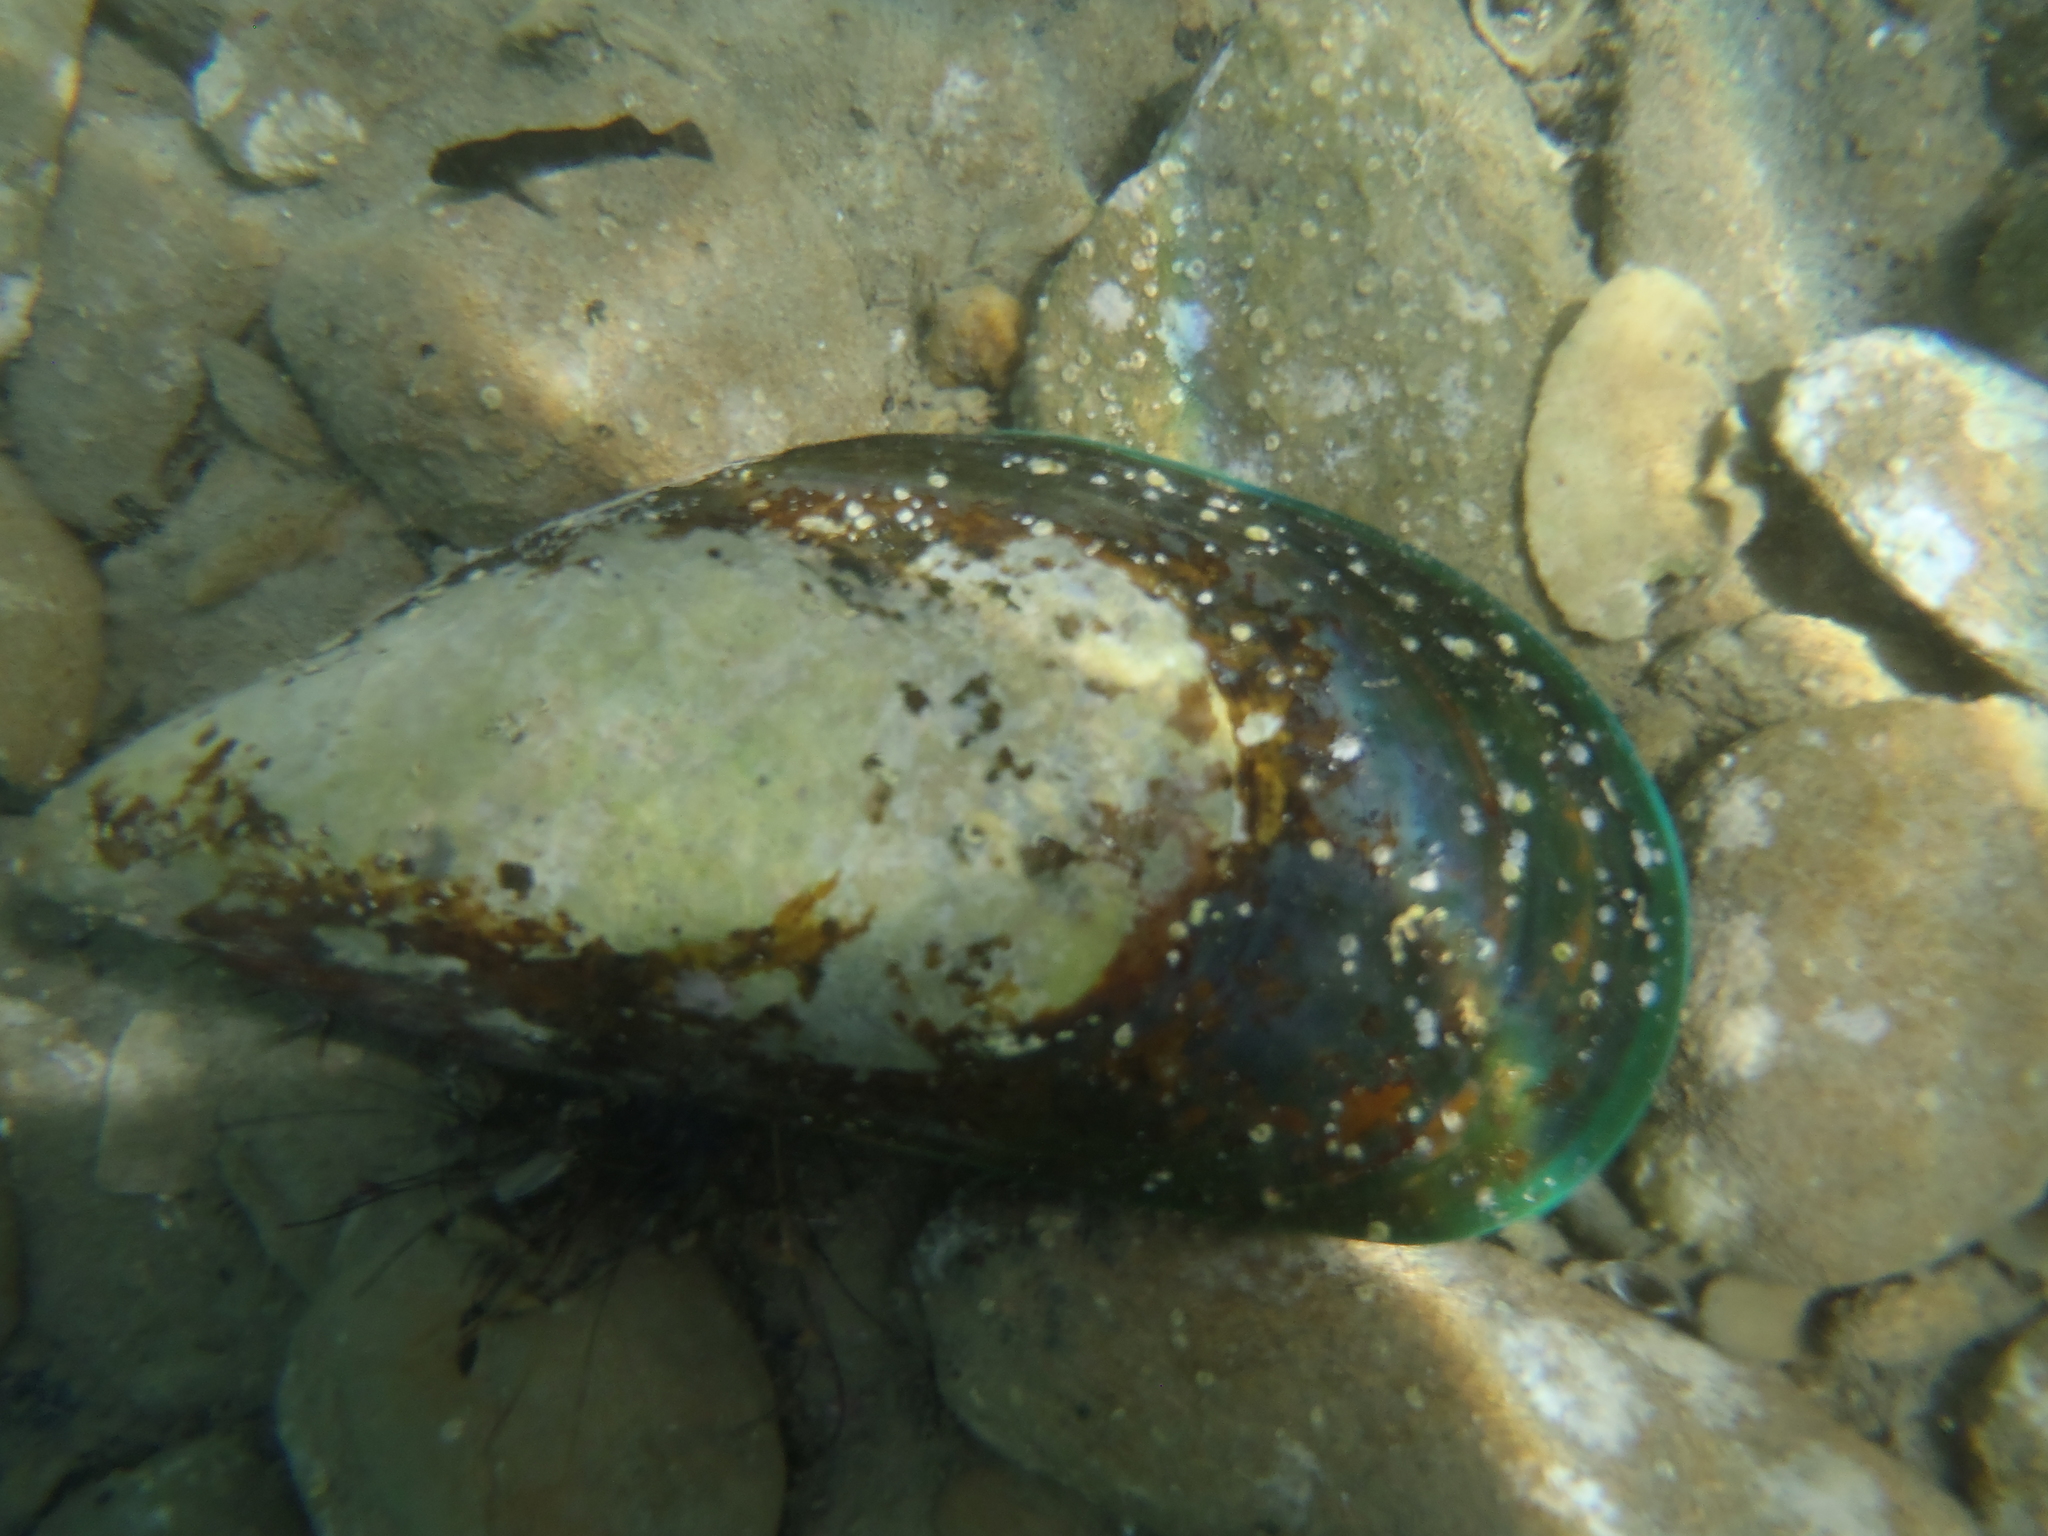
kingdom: Animalia
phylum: Mollusca
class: Bivalvia
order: Mytilida
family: Mytilidae
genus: Perna
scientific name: Perna canaliculus
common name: New zealand greenshelltm
